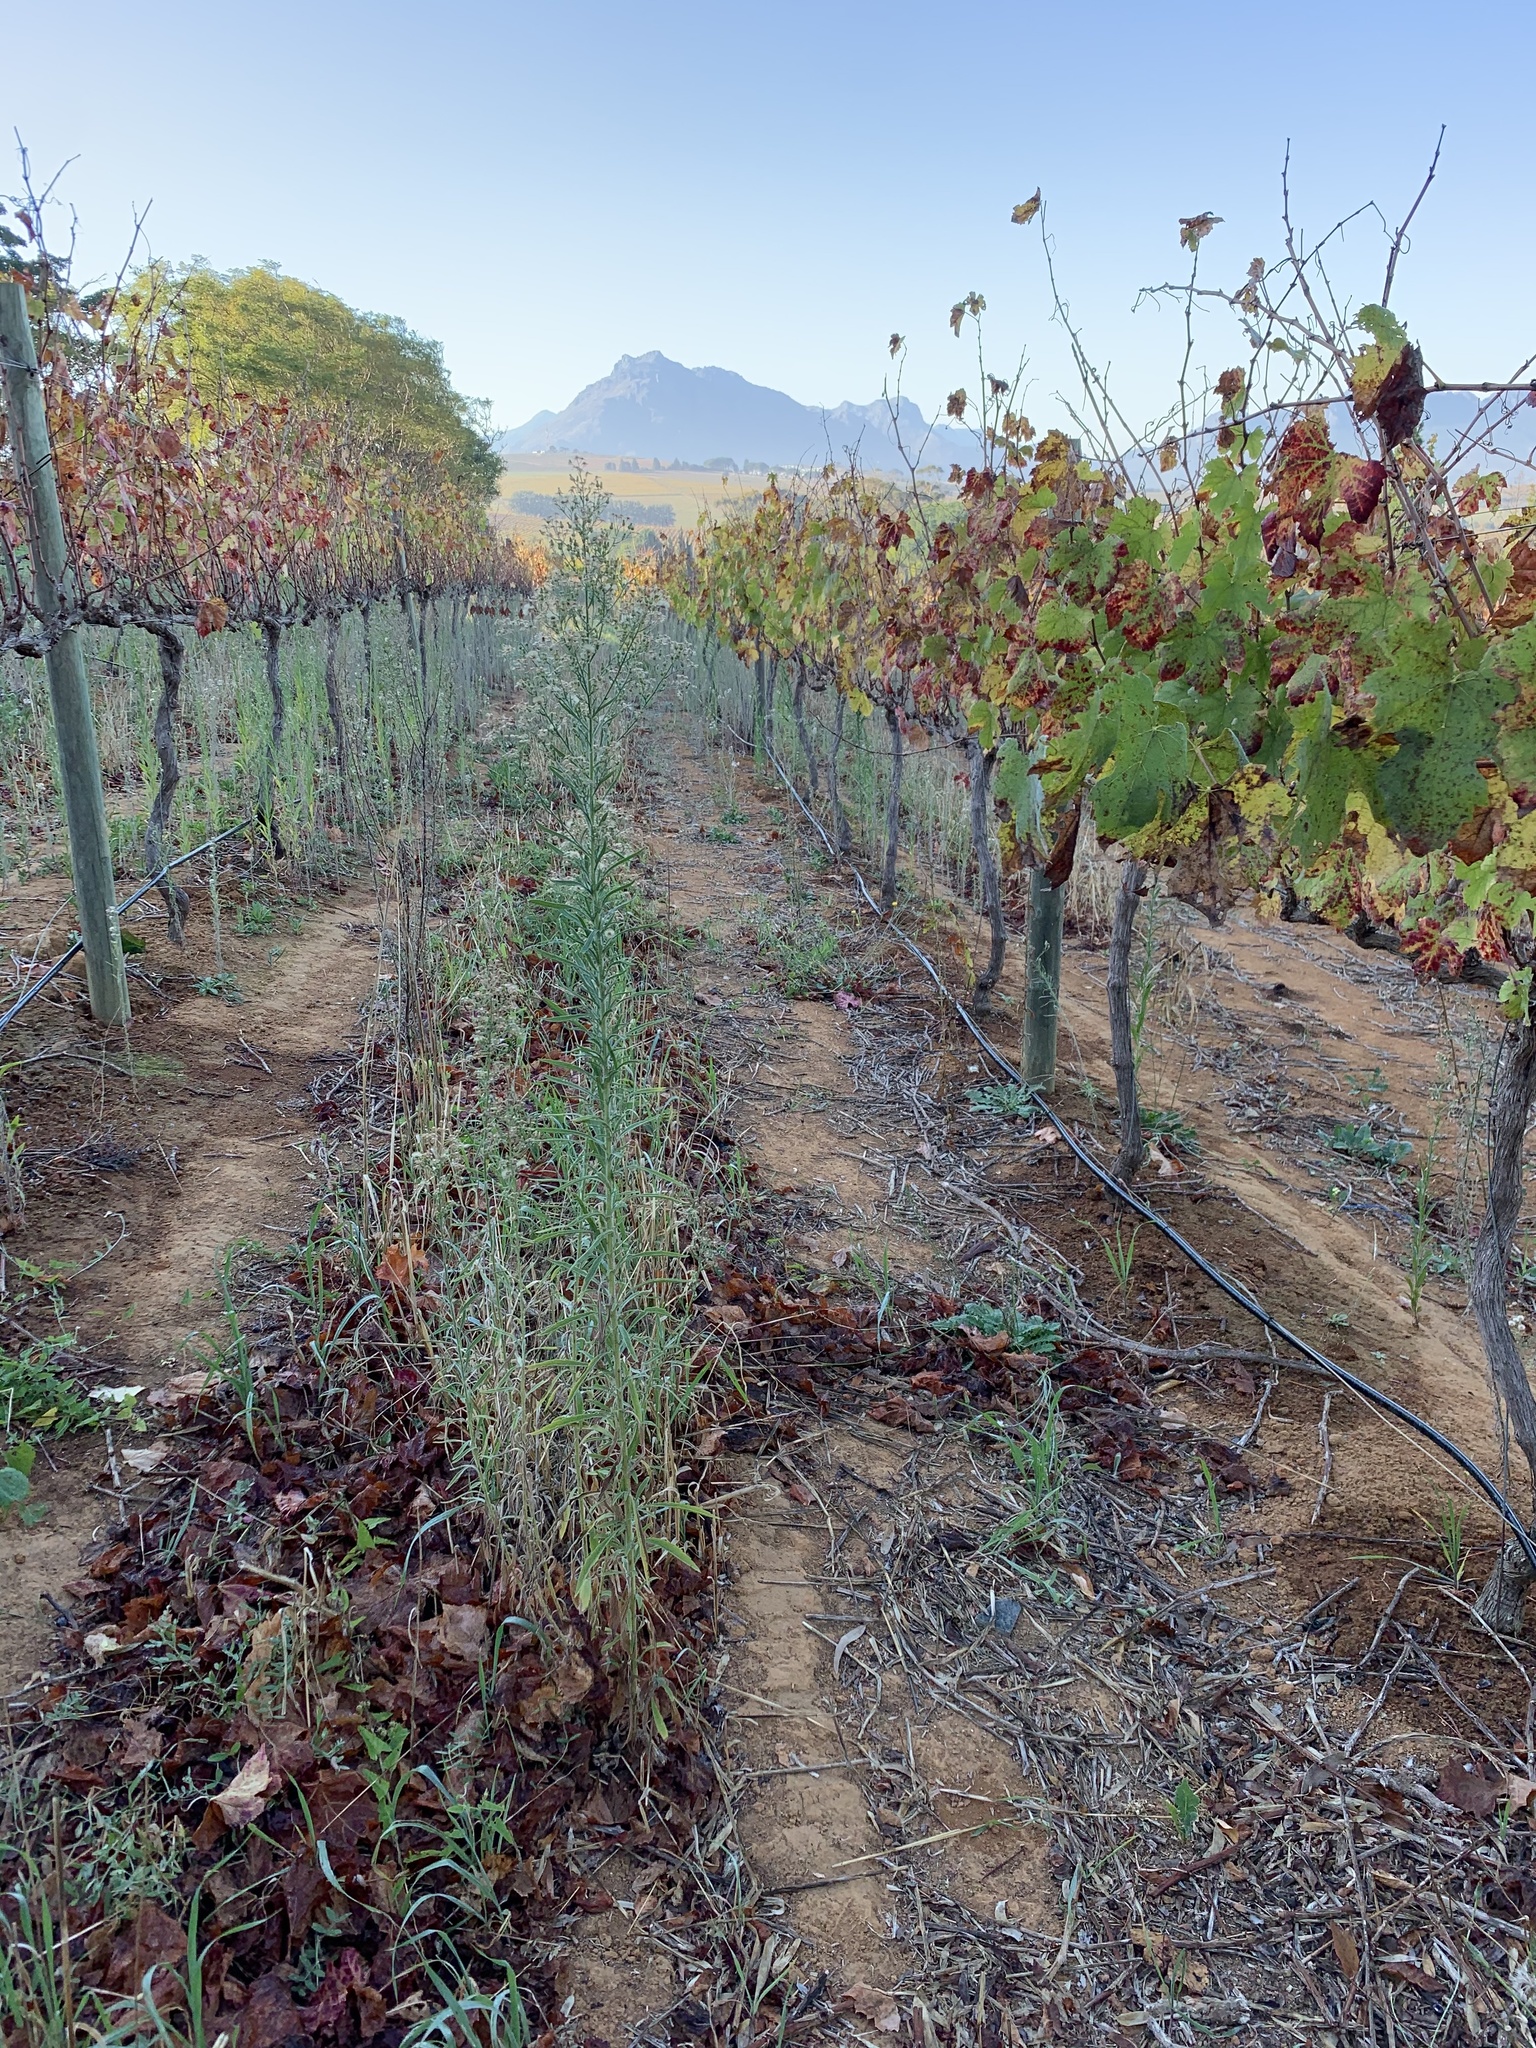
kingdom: Plantae
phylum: Tracheophyta
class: Magnoliopsida
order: Asterales
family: Asteraceae
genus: Erigeron
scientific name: Erigeron sumatrensis
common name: Daisy
